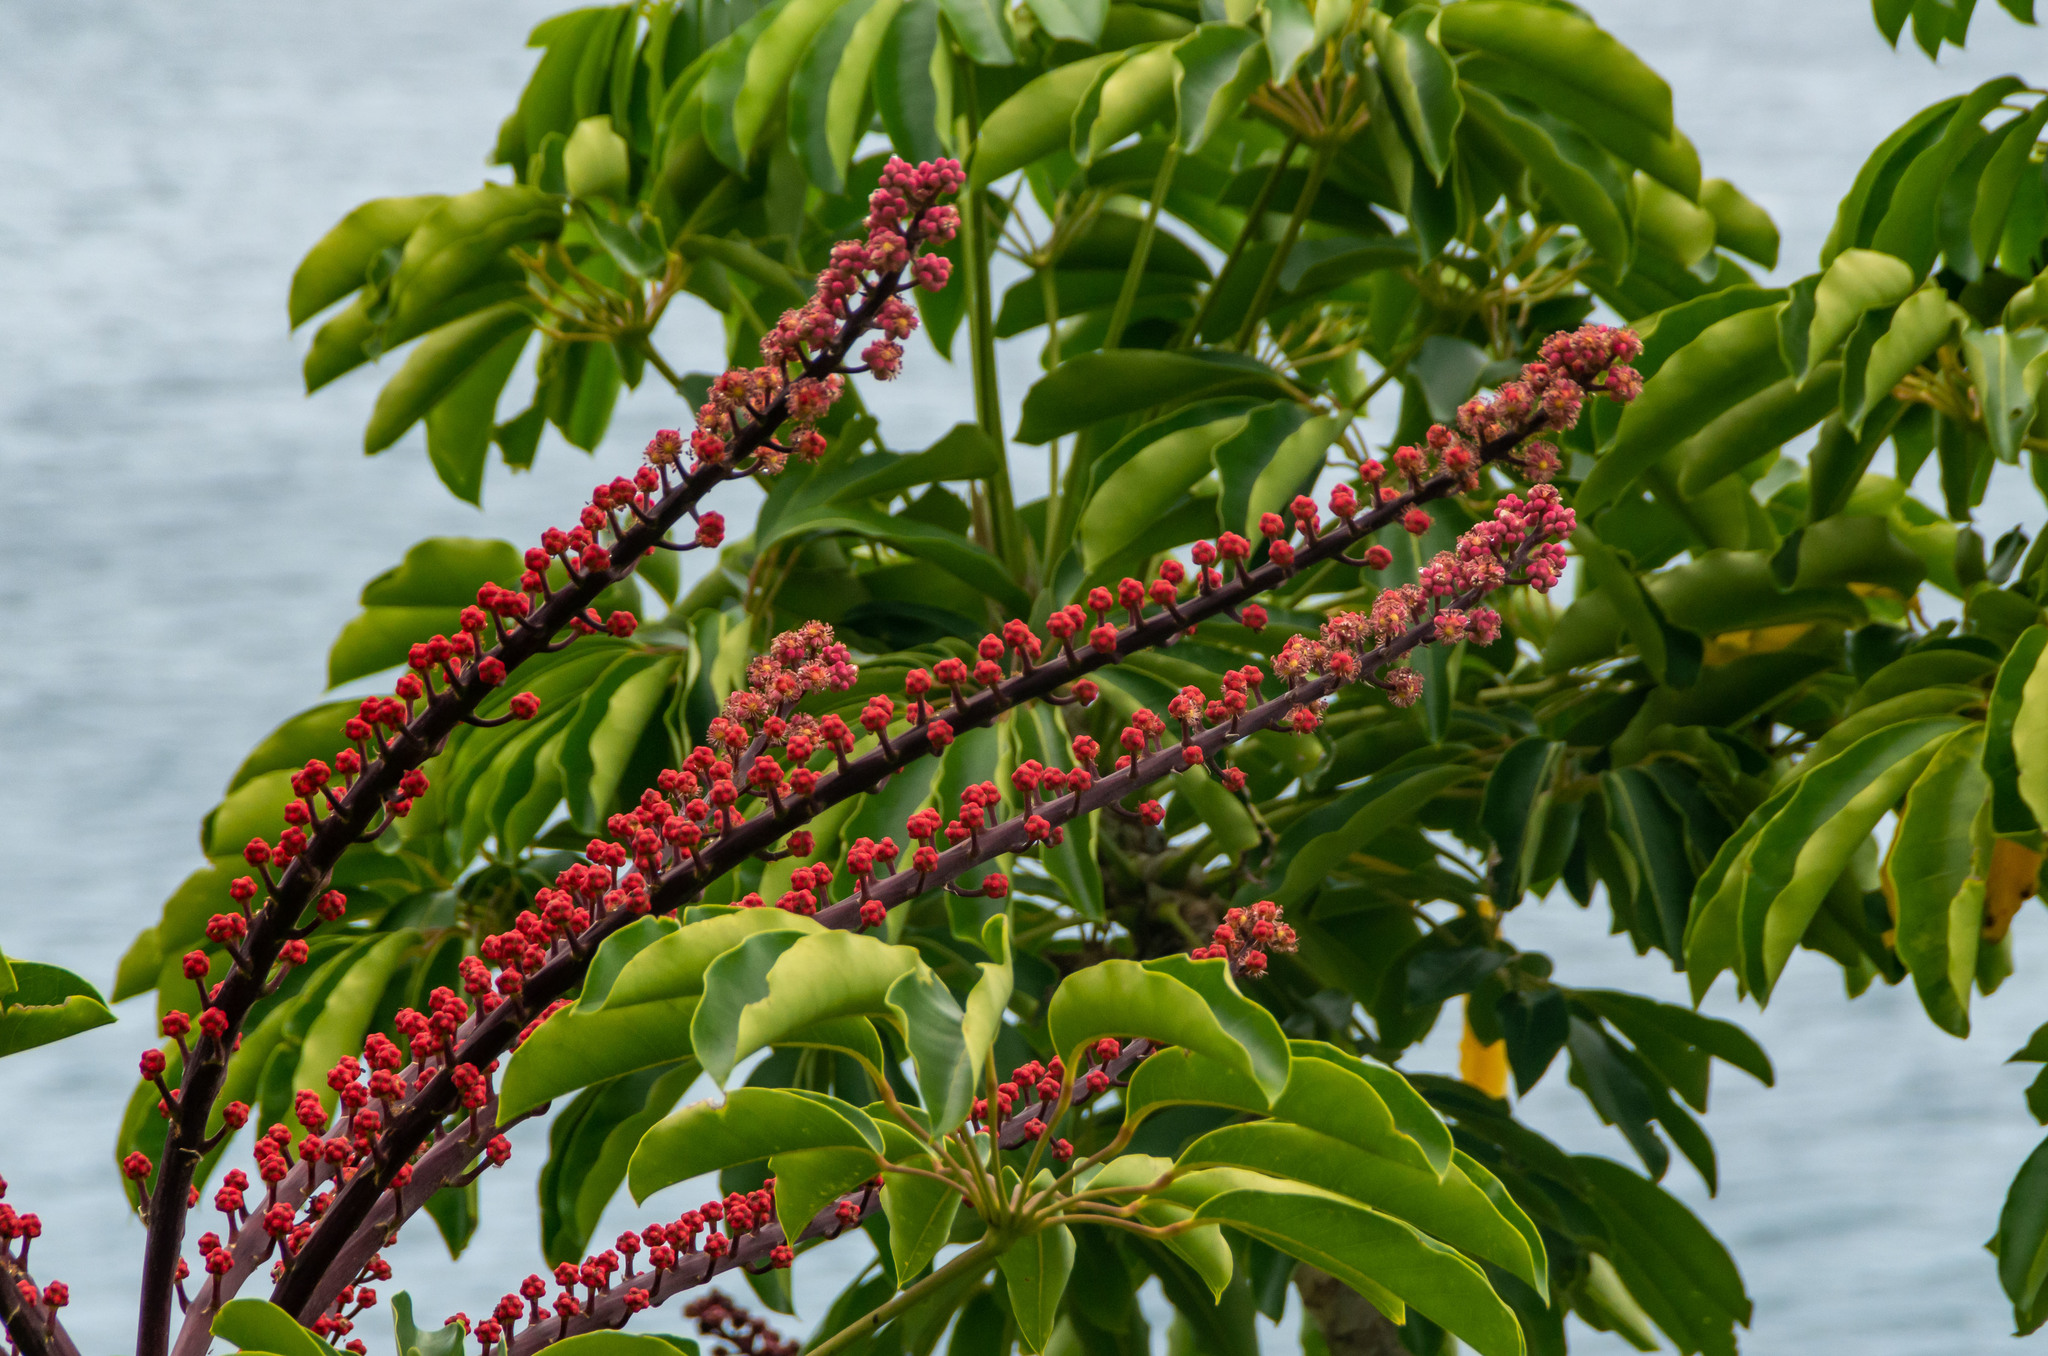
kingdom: Plantae
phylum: Tracheophyta
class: Magnoliopsida
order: Apiales
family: Araliaceae
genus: Heptapleurum
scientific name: Heptapleurum actinophyllum
